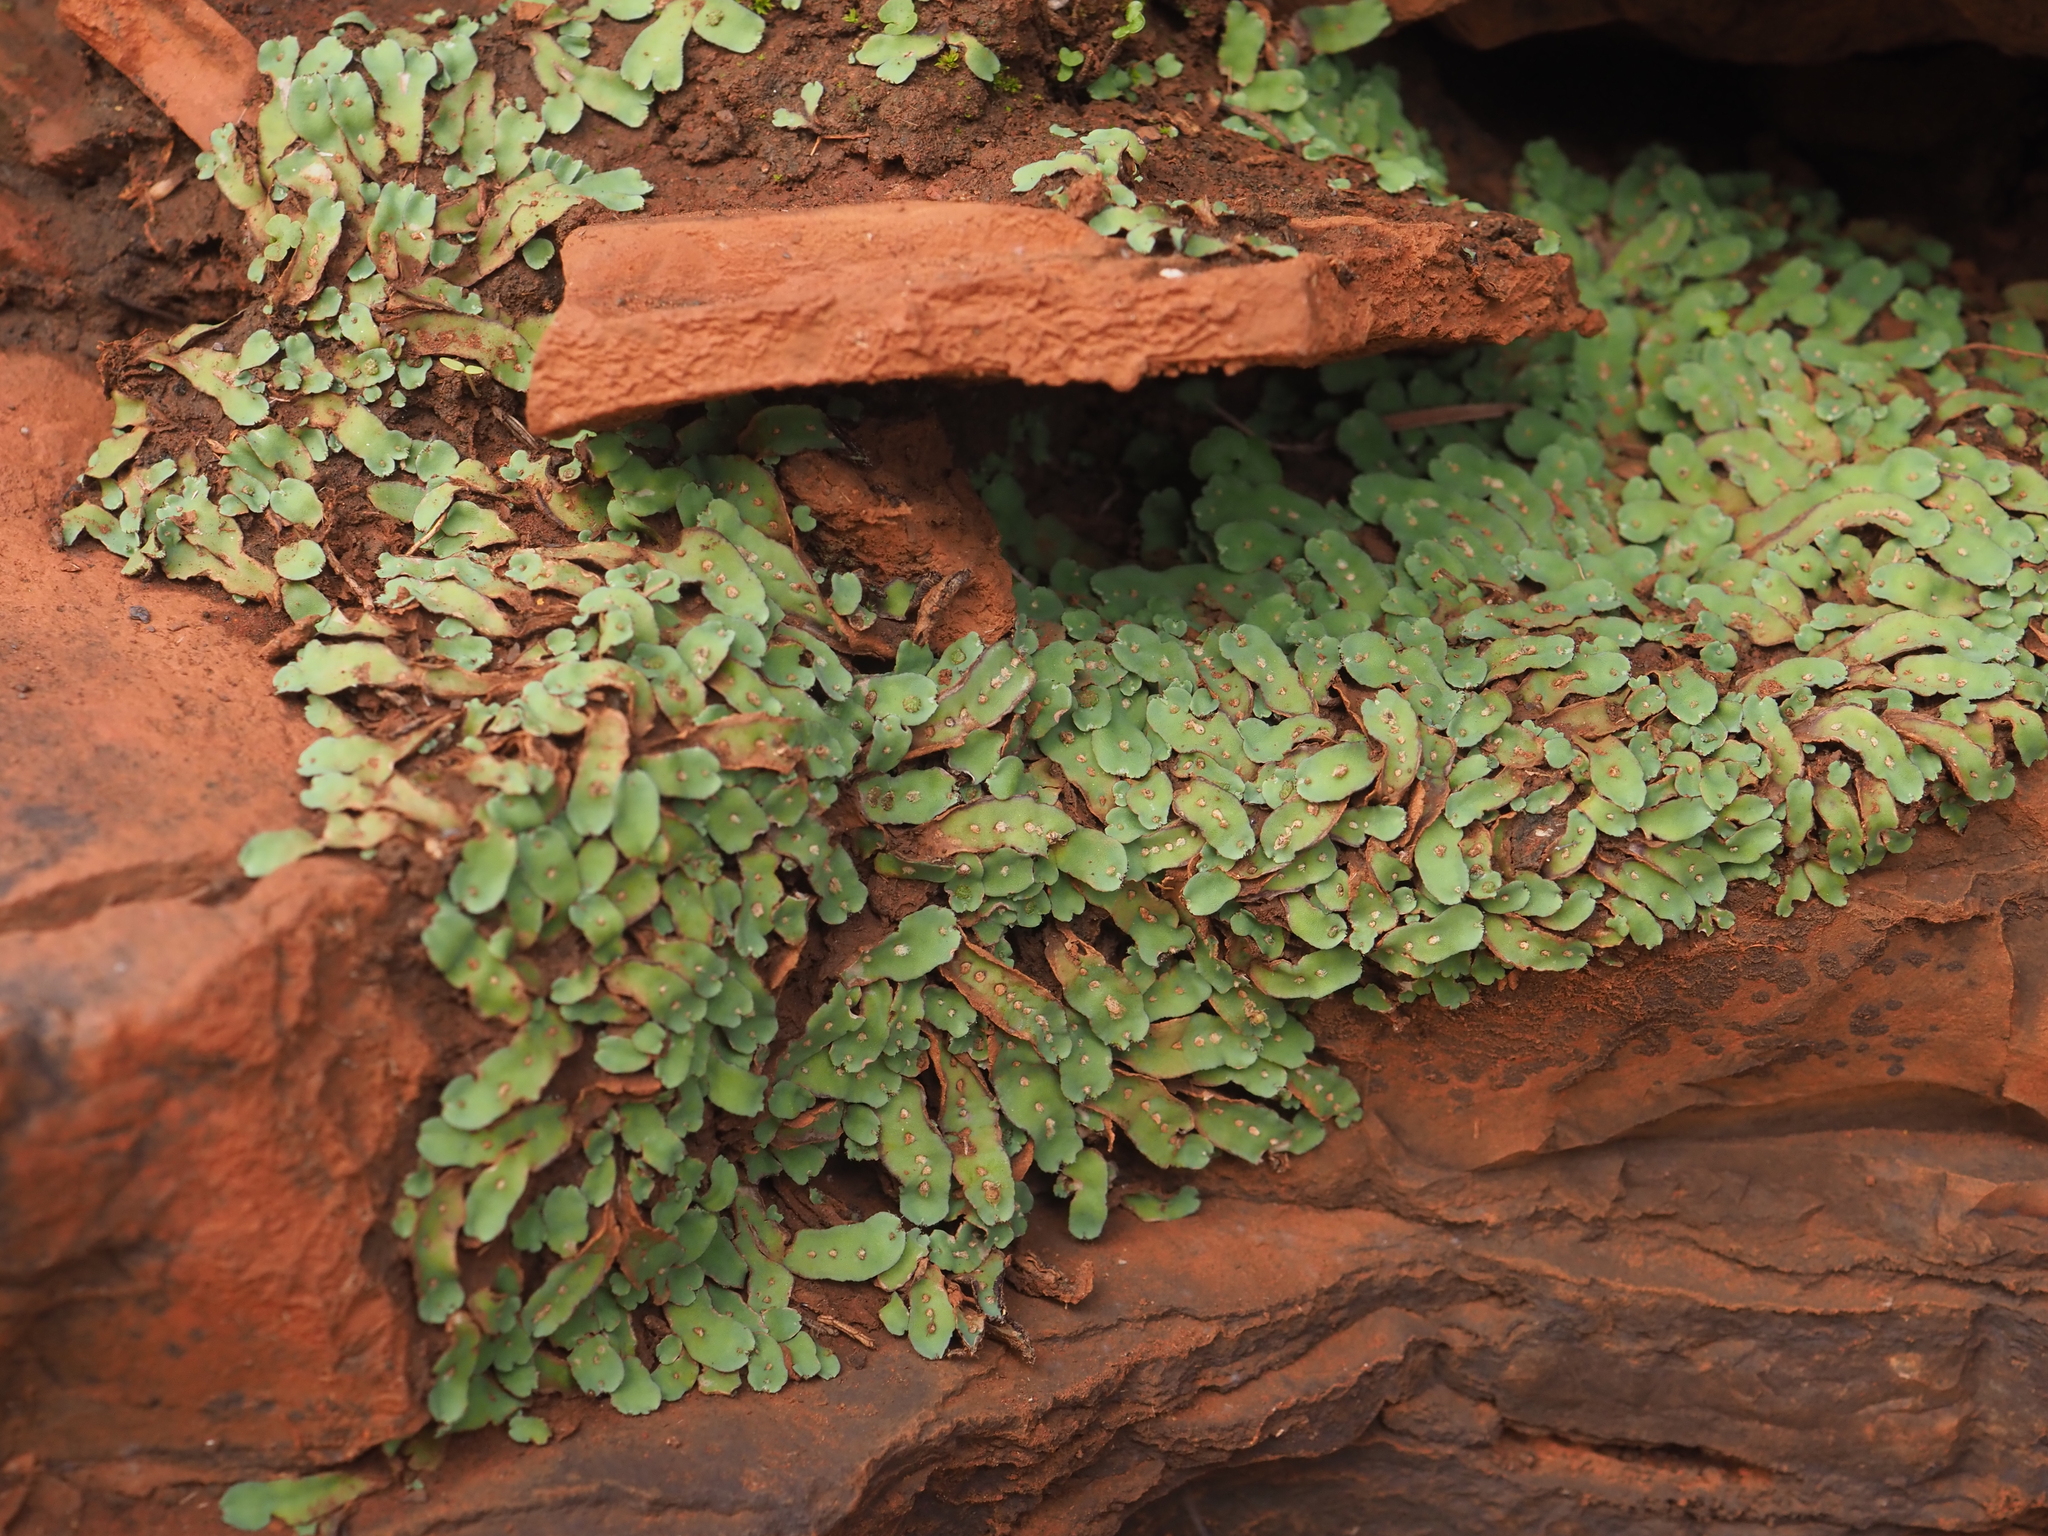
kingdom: Plantae
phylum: Marchantiophyta
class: Marchantiopsida
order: Marchantiales
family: Aytoniaceae
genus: Plagiochasma
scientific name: Plagiochasma rupestre
